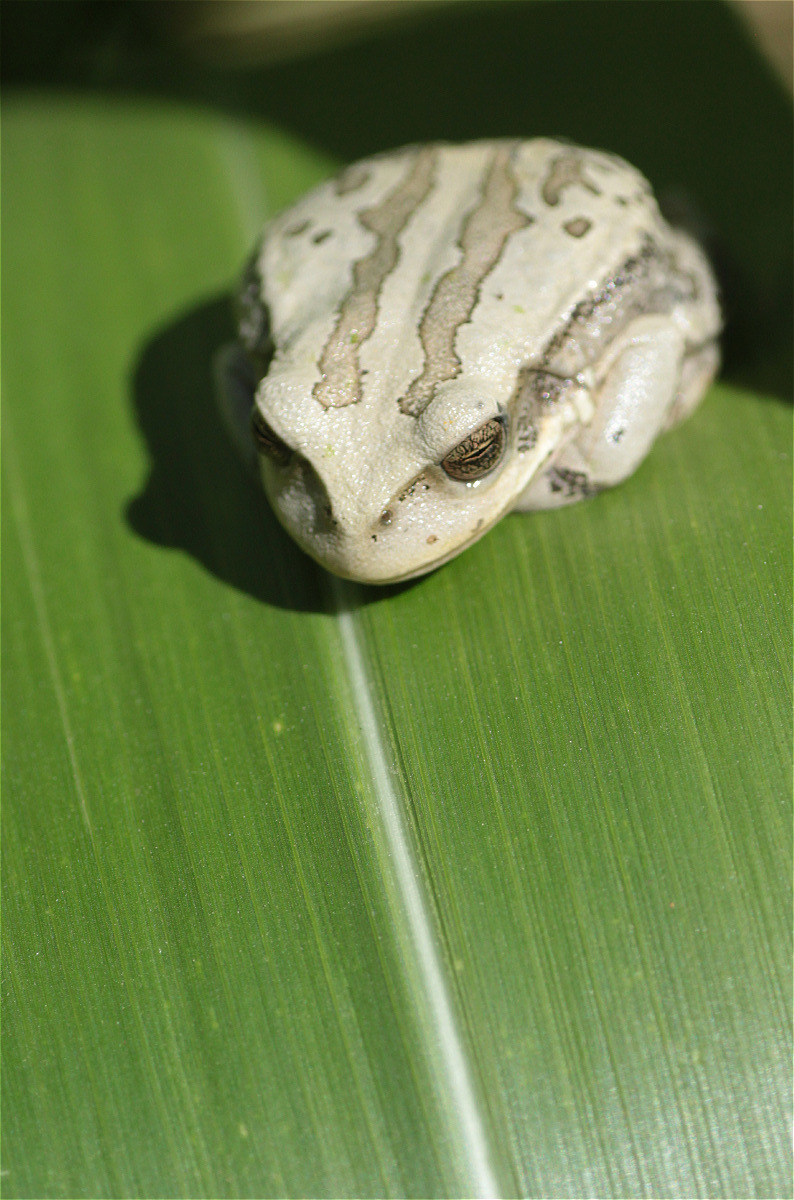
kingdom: Animalia
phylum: Chordata
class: Amphibia
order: Anura
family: Hemiphractidae
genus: Gastrotheca
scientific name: Gastrotheca cuencana
